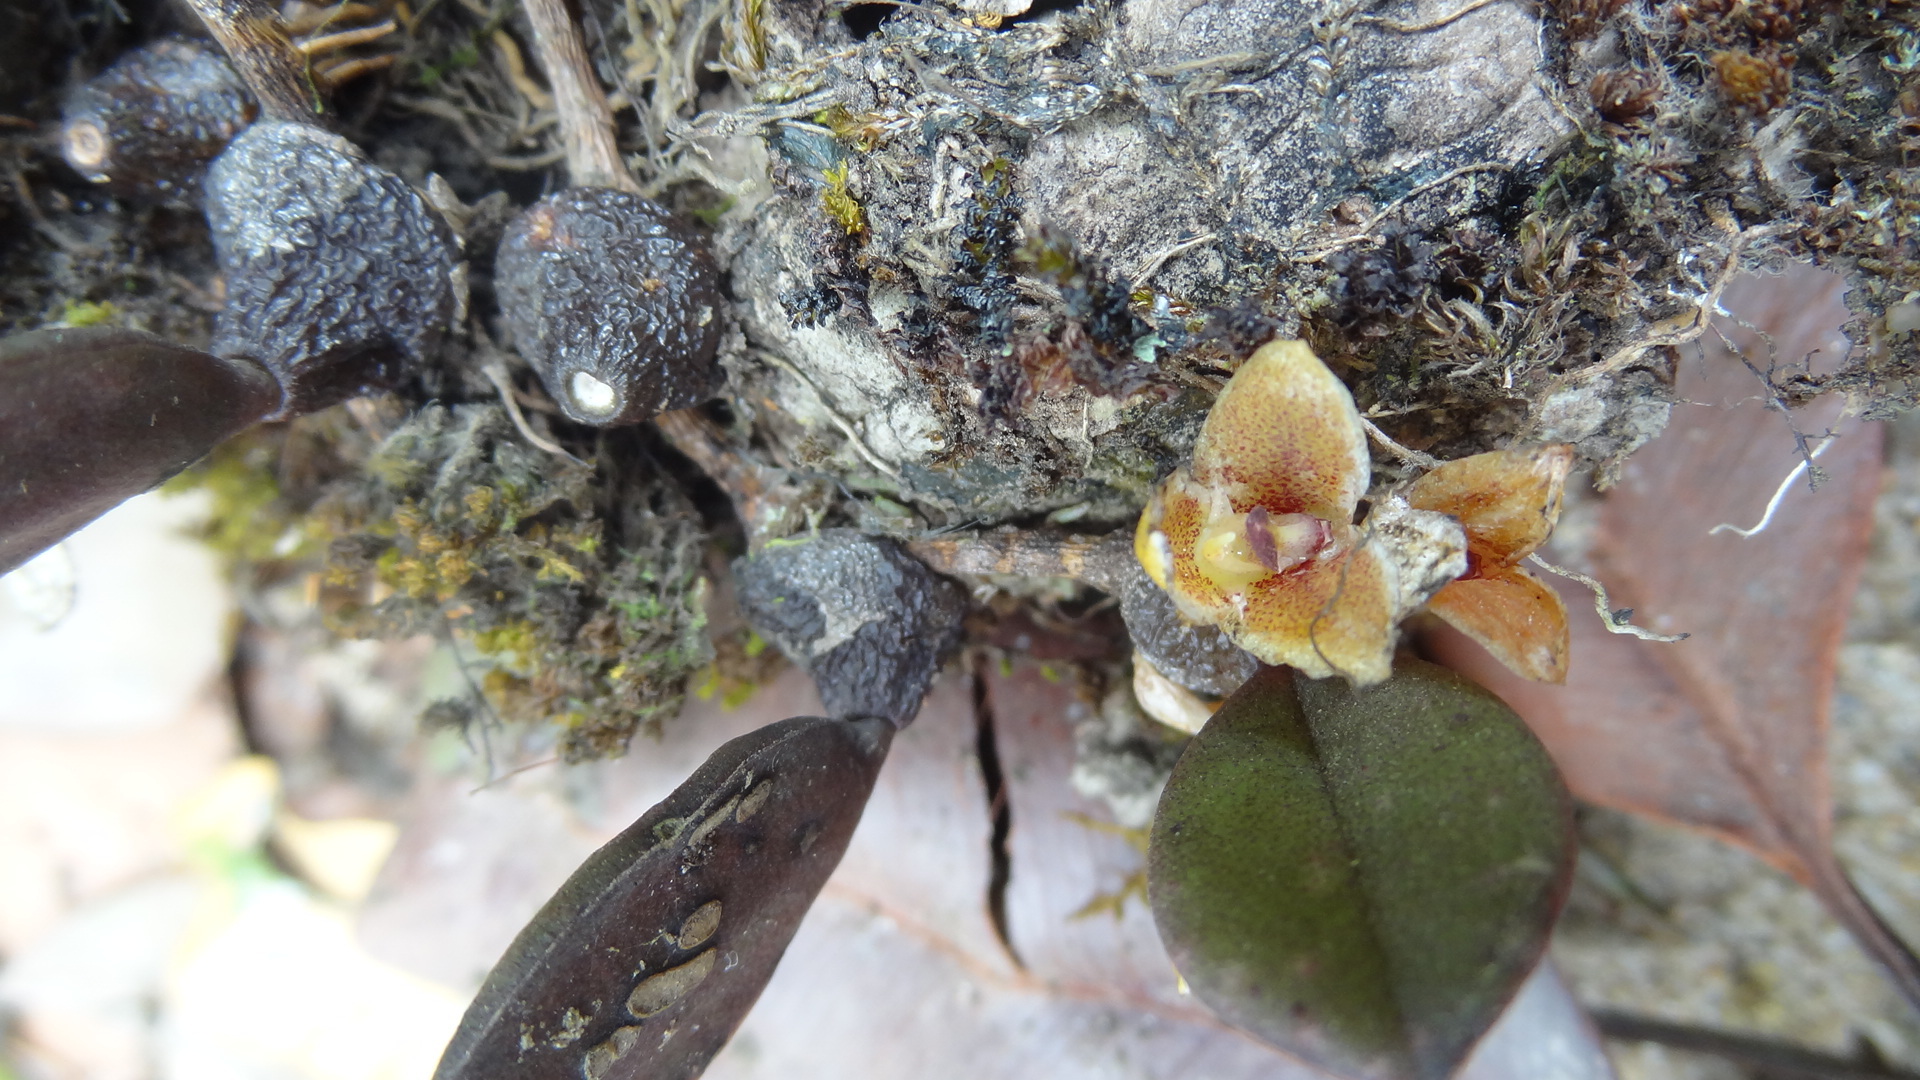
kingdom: Plantae
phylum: Tracheophyta
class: Liliopsida
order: Asparagales
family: Orchidaceae
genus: Bulbophyllum
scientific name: Bulbophyllum stocksii
